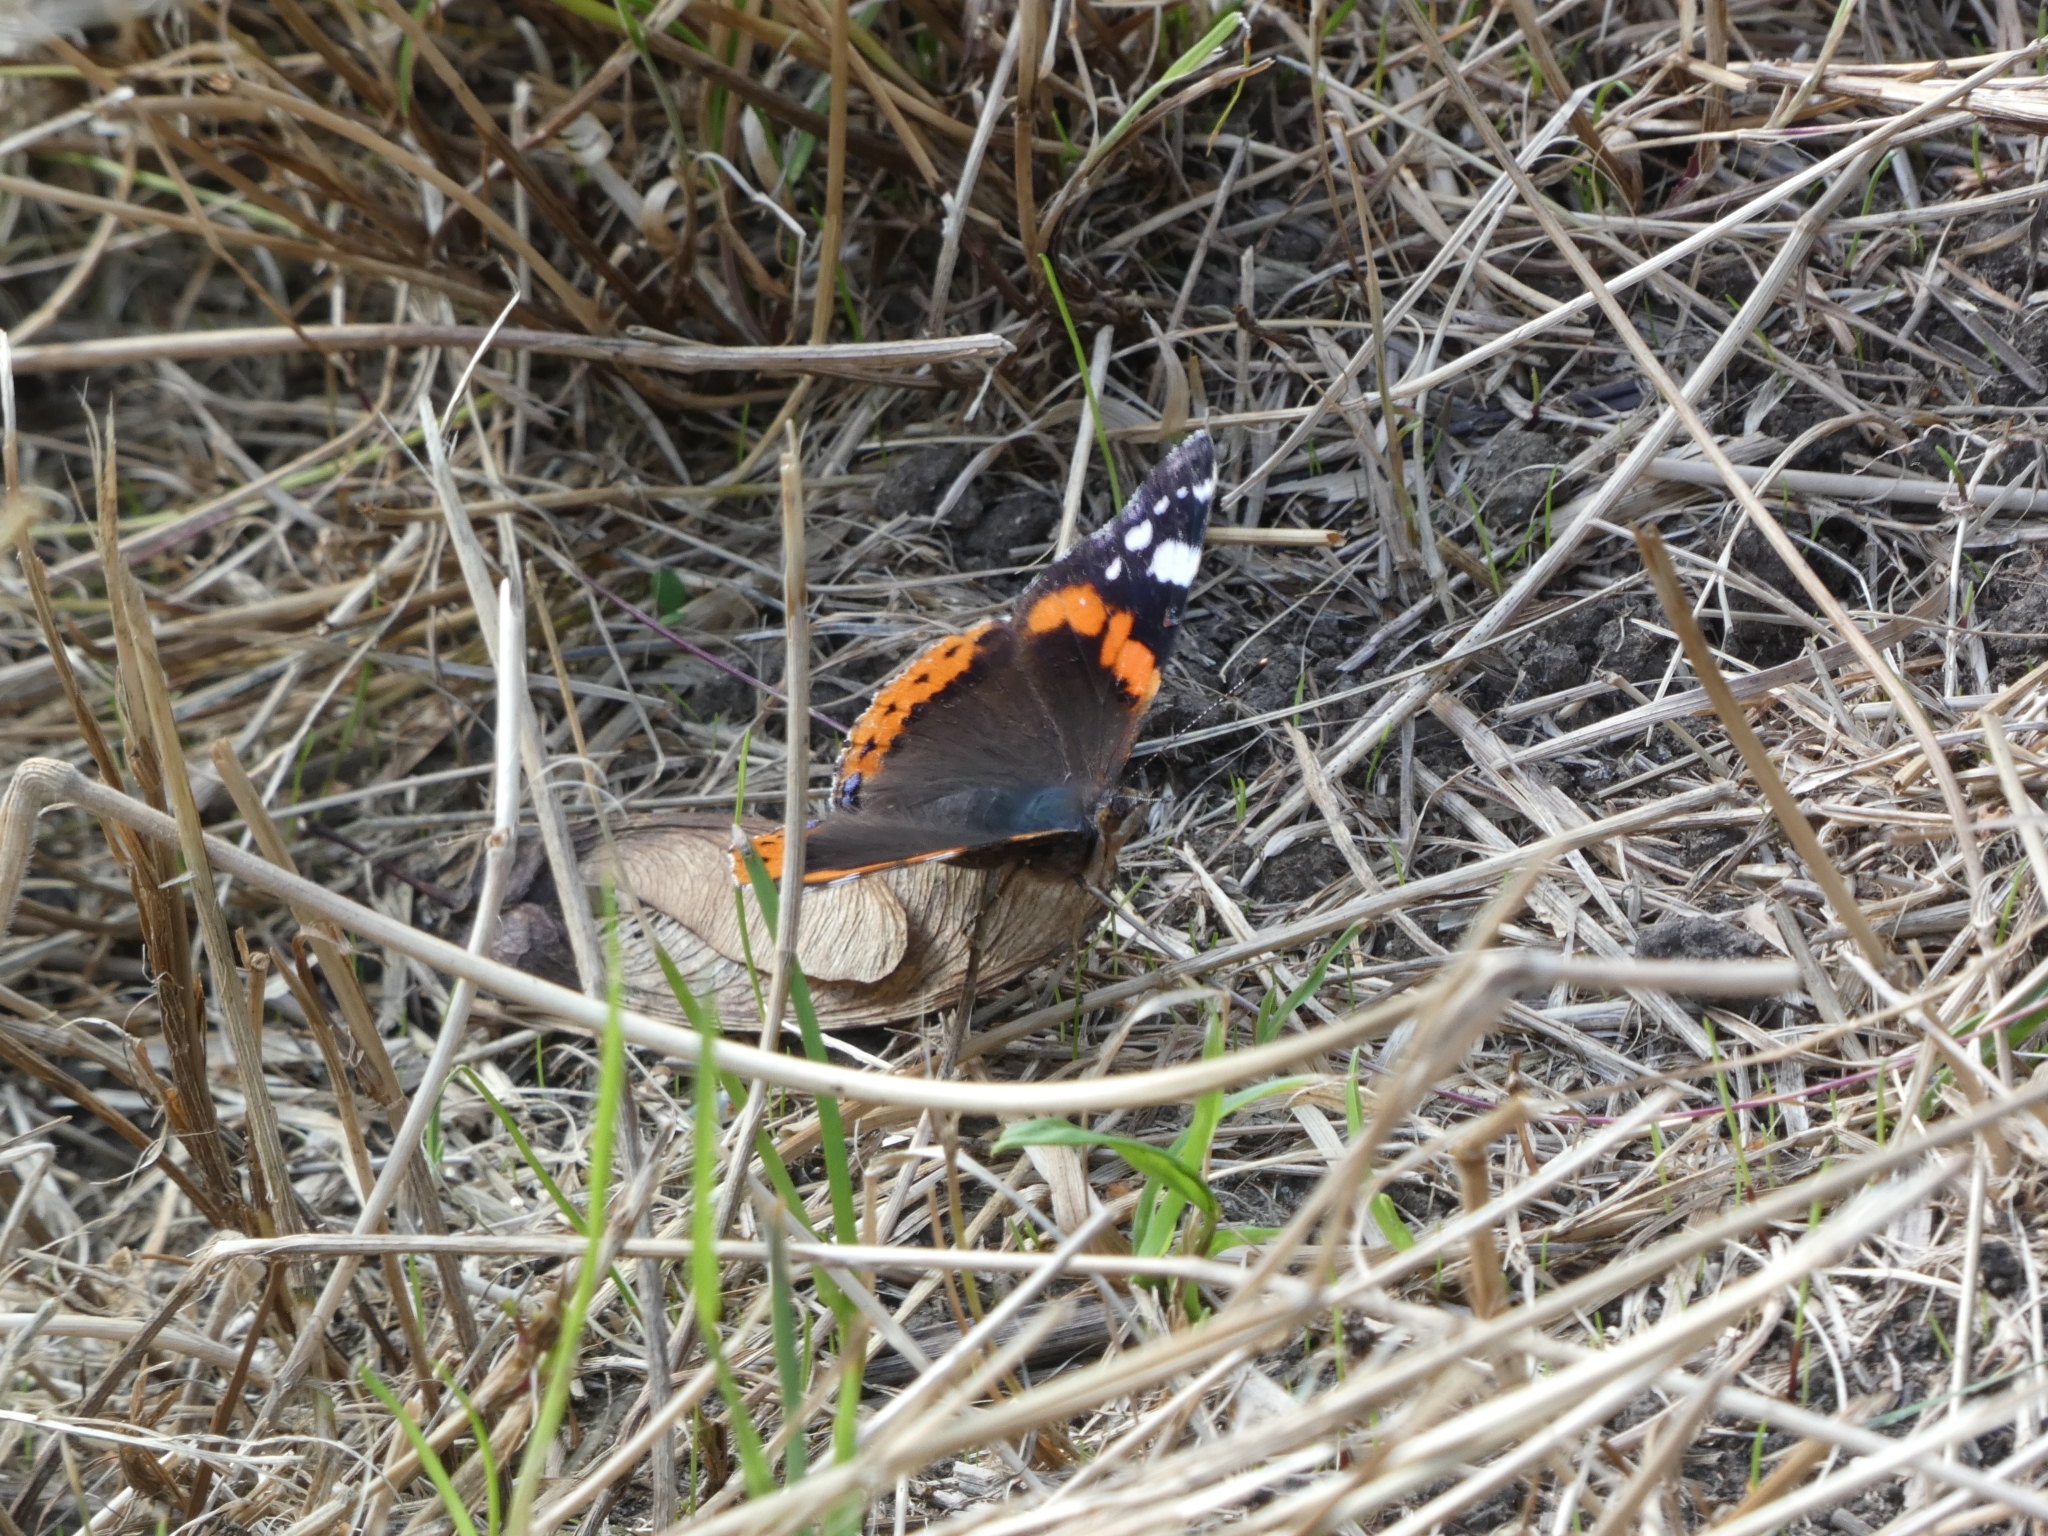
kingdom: Animalia
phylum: Arthropoda
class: Insecta
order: Lepidoptera
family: Nymphalidae
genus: Vanessa
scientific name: Vanessa atalanta
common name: Red admiral
